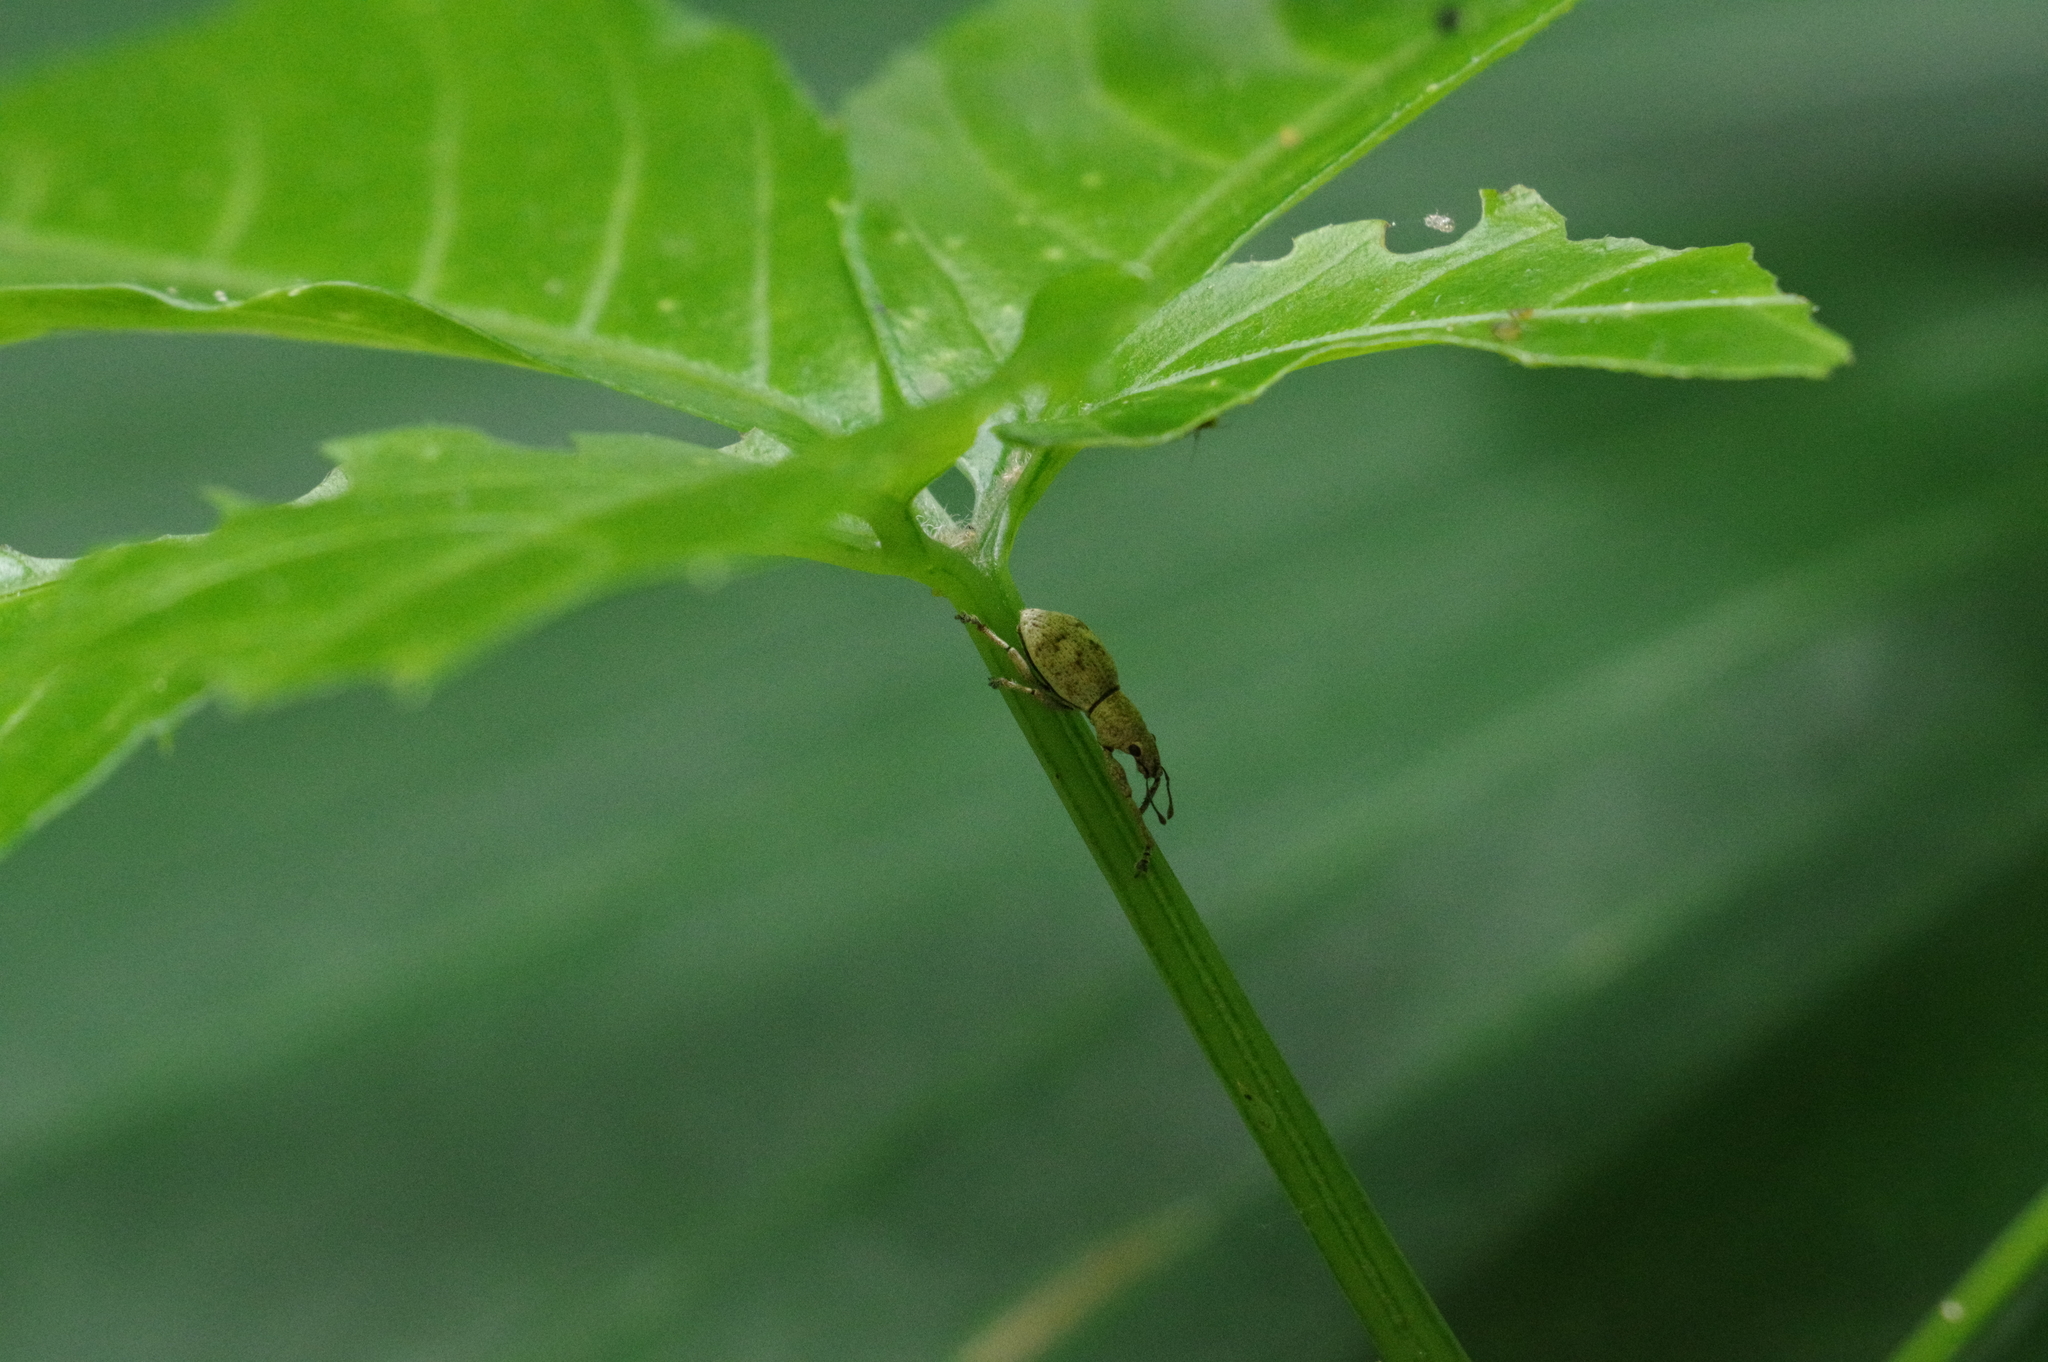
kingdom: Animalia
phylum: Arthropoda
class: Insecta
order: Coleoptera
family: Curculionidae
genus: Sympiezomias
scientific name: Sympiezomias cribricollis
